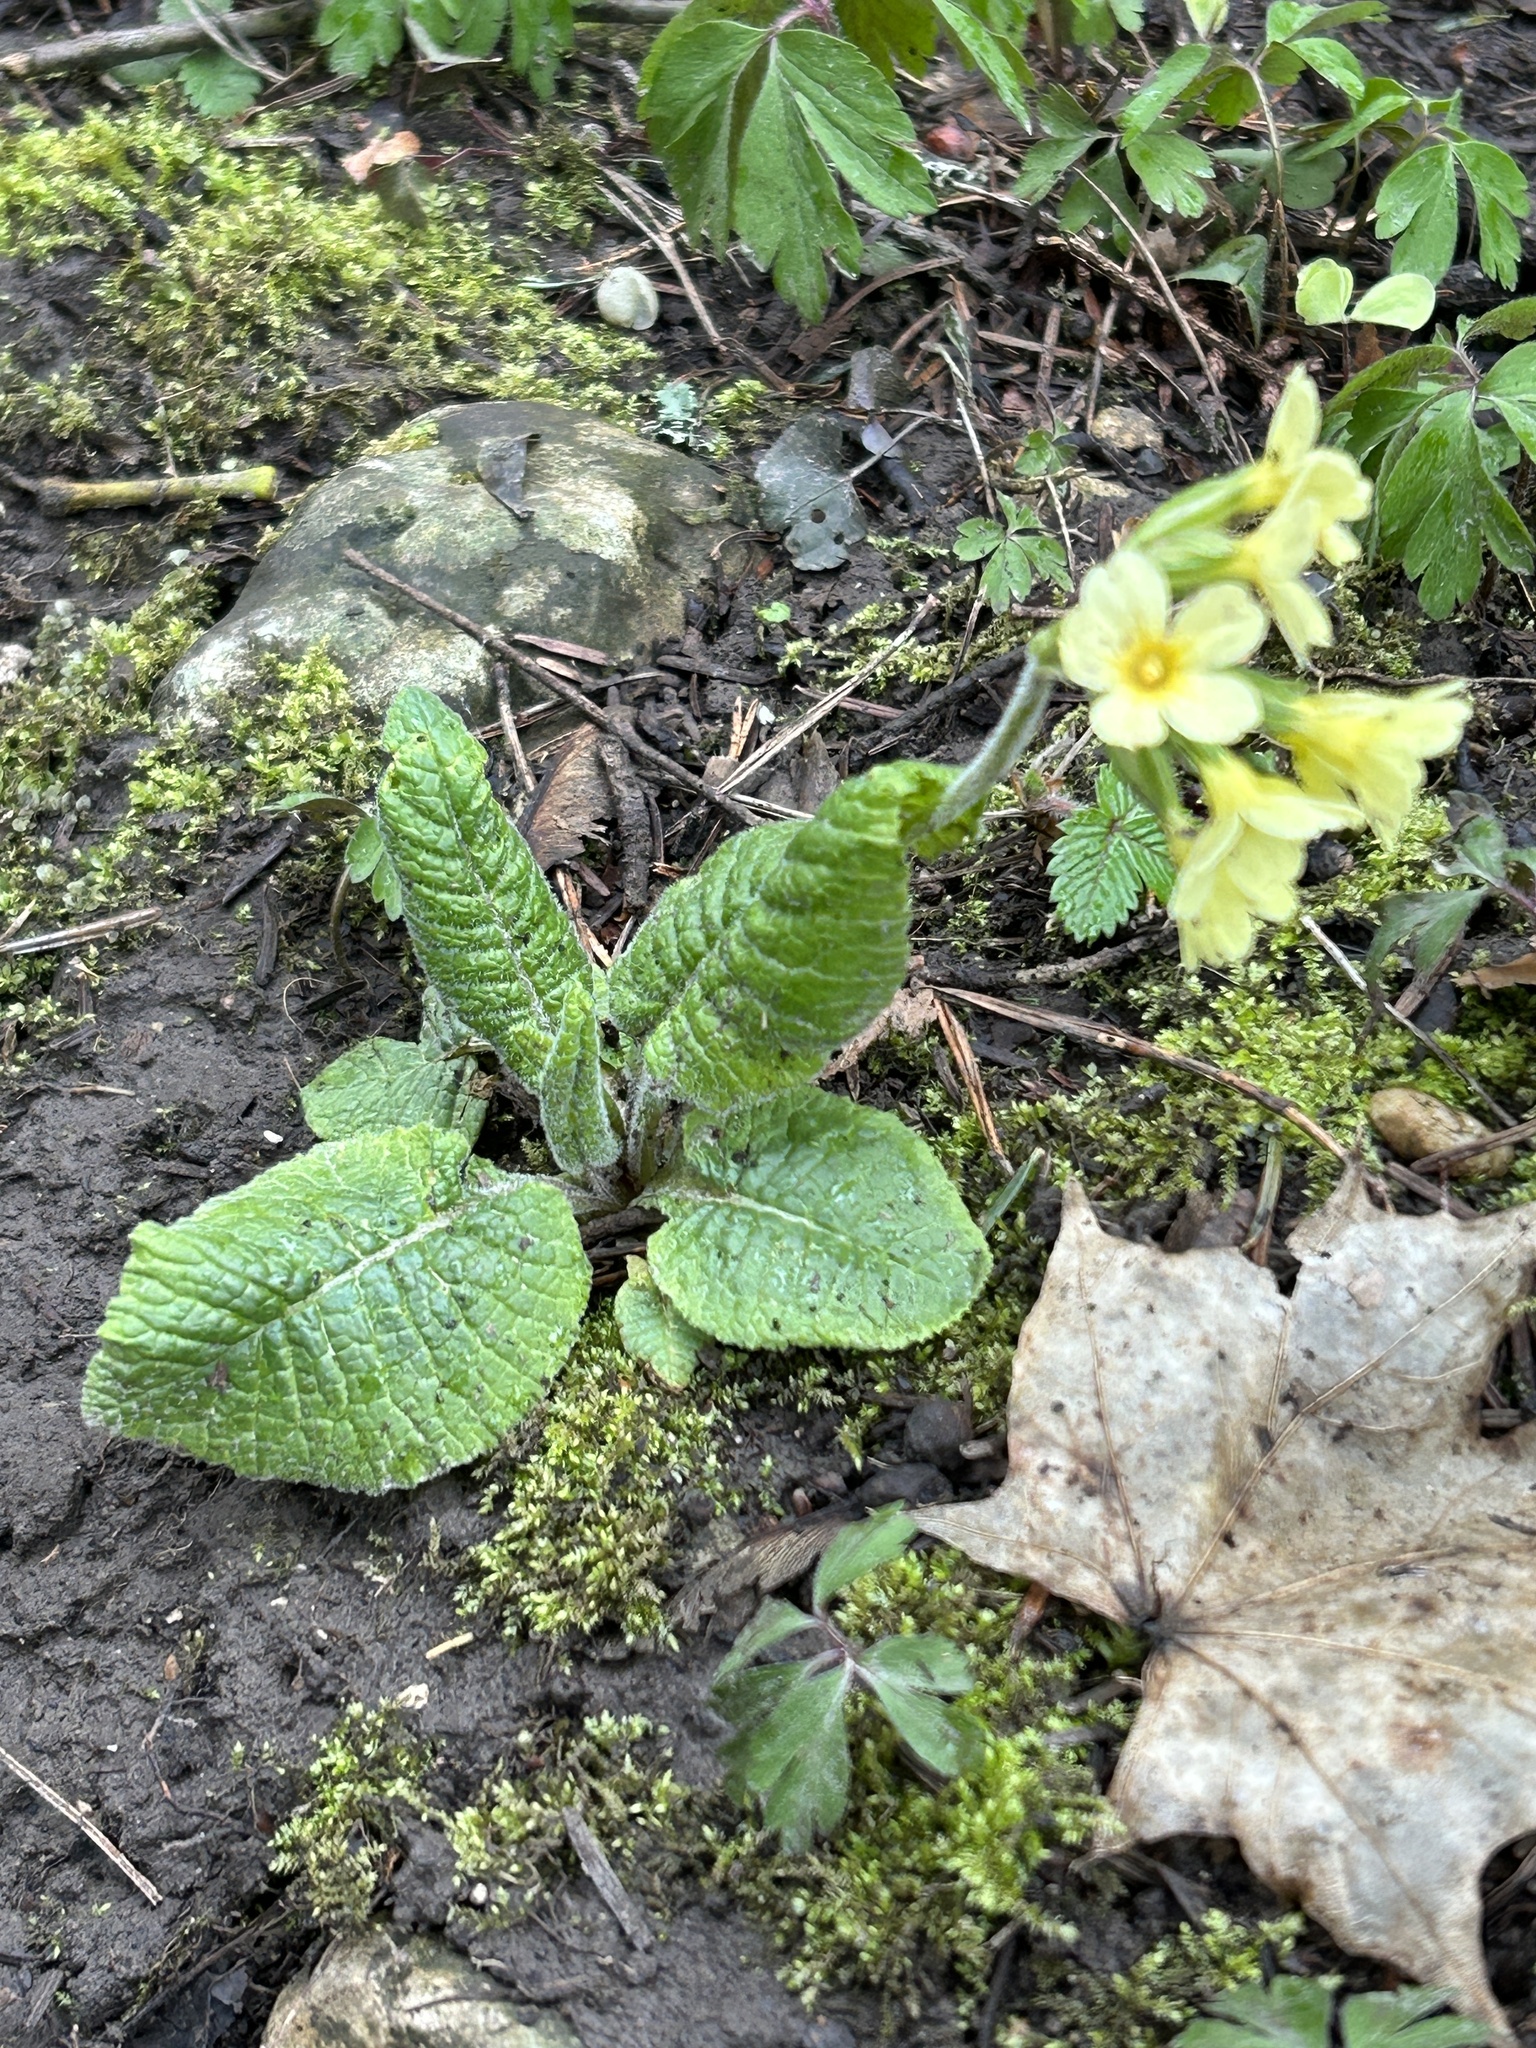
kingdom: Plantae
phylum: Tracheophyta
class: Magnoliopsida
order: Ericales
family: Primulaceae
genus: Primula
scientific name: Primula elatior
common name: Oxlip
